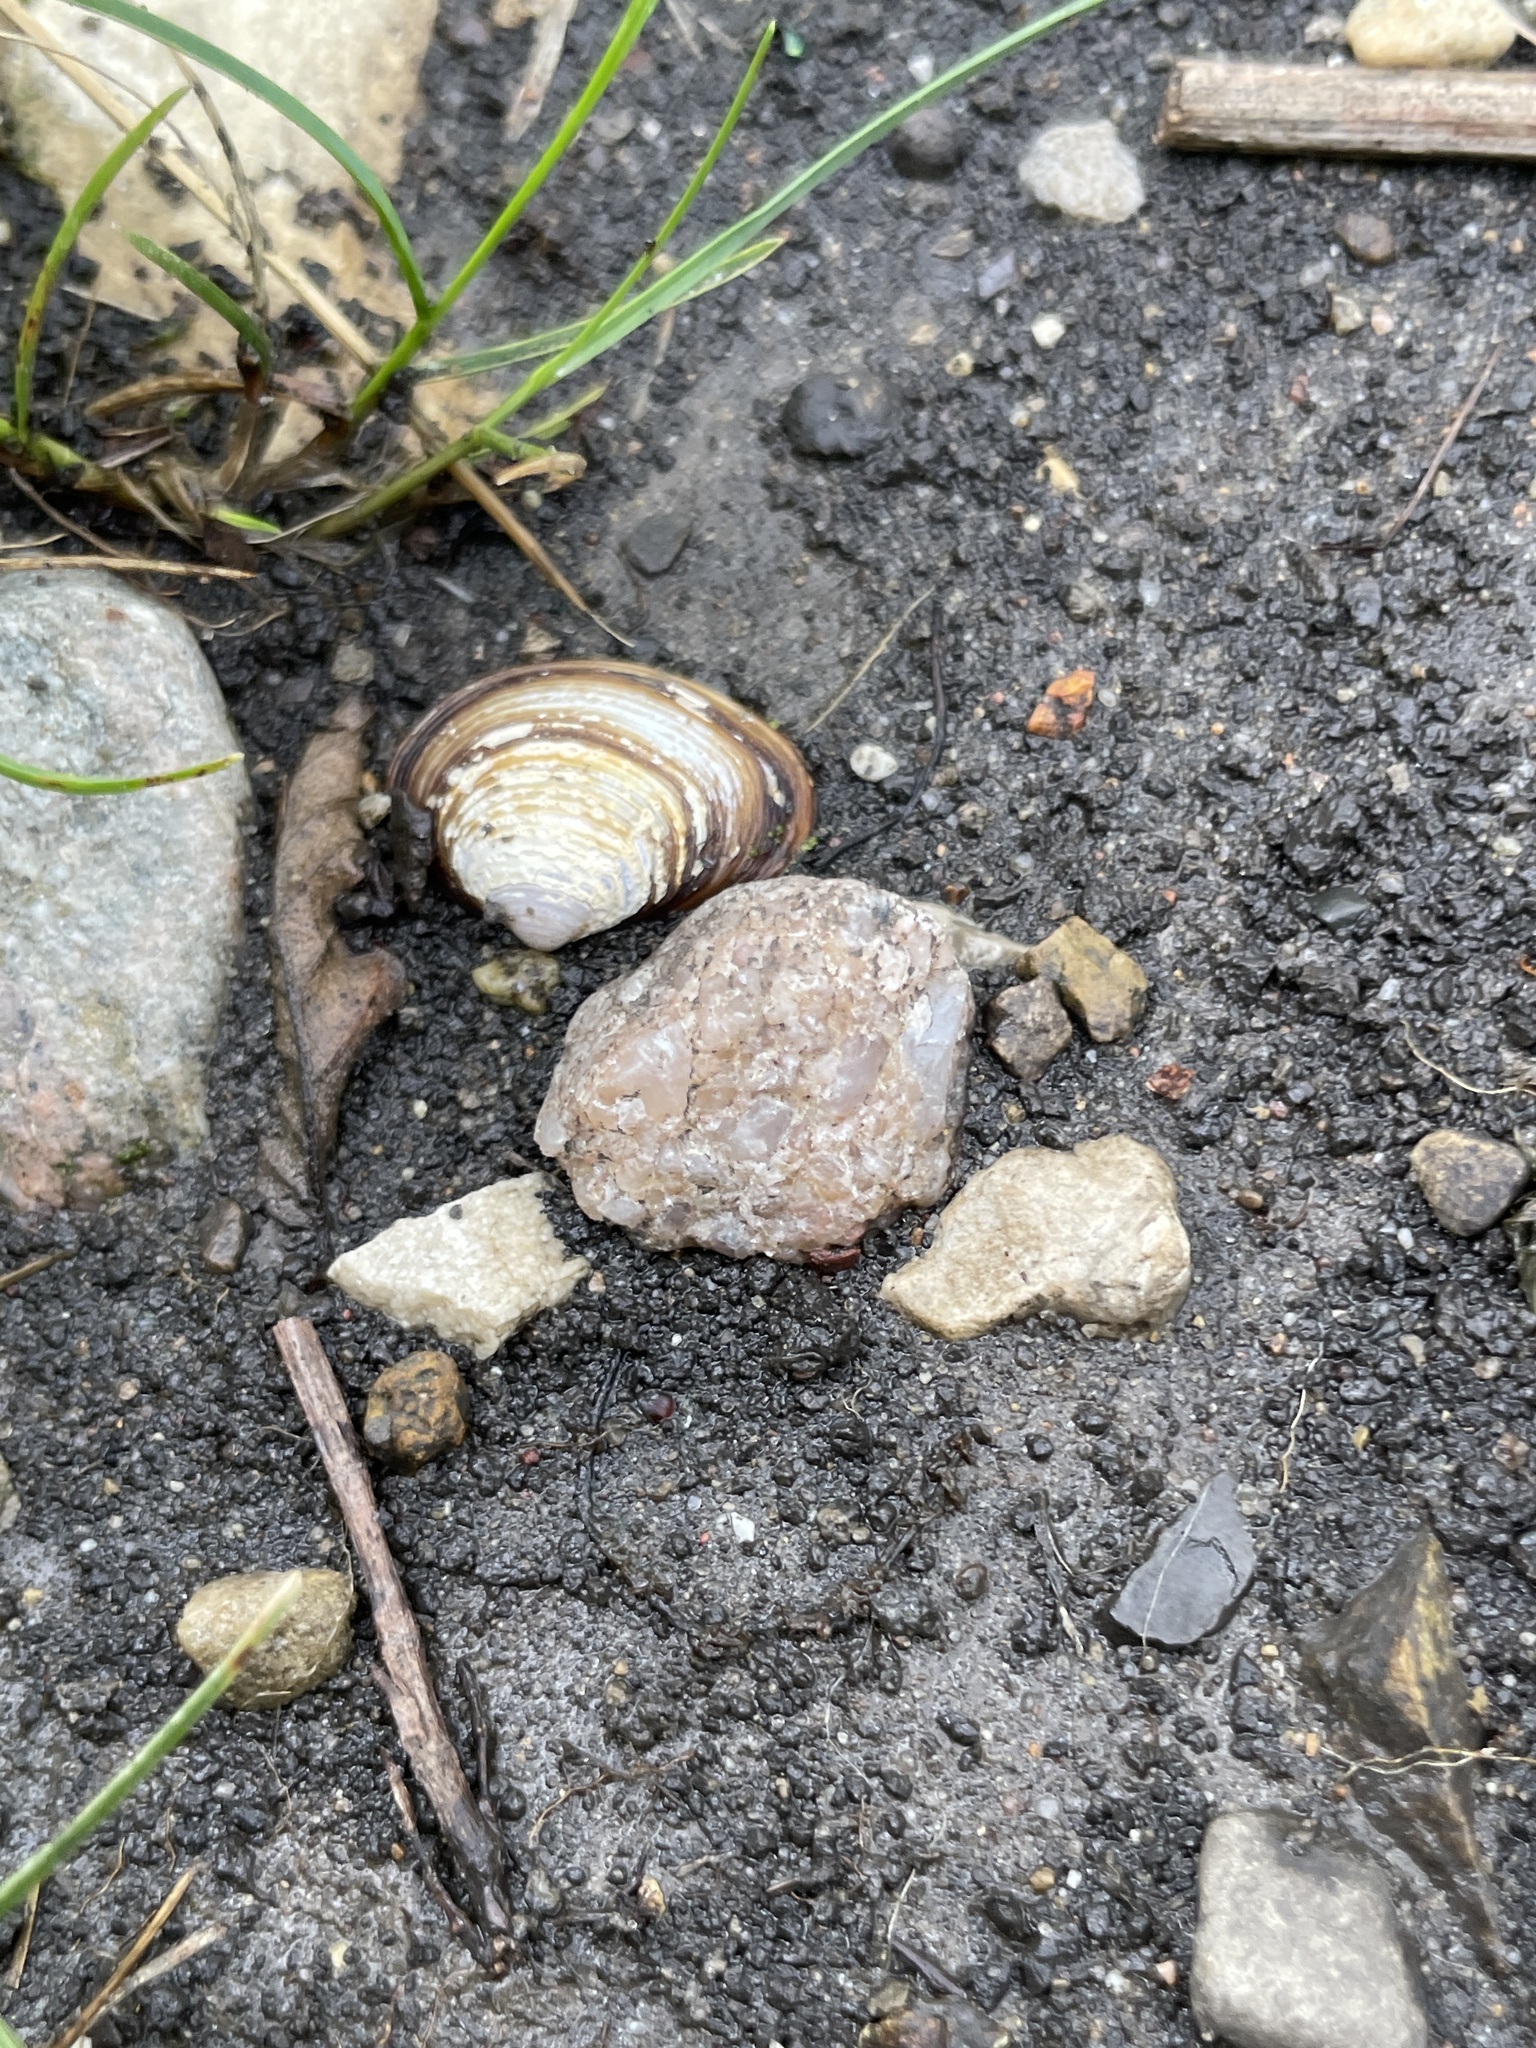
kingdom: Animalia
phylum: Mollusca
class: Bivalvia
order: Venerida
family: Cyrenidae
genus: Corbicula
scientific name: Corbicula fluminea
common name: Asian clam
